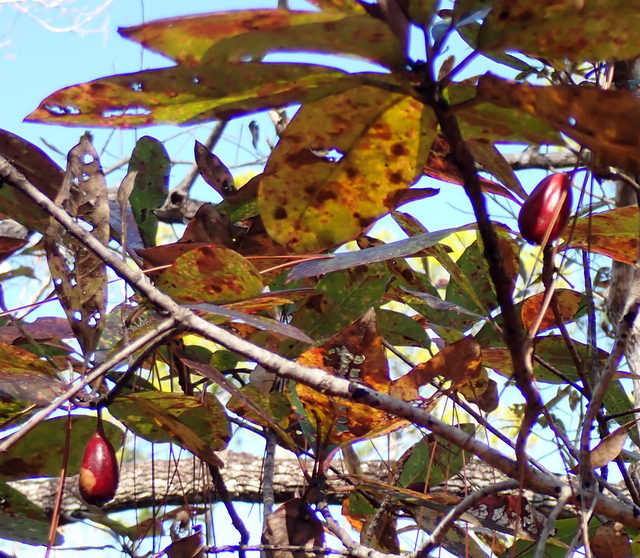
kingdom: Plantae
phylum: Tracheophyta
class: Magnoliopsida
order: Cornales
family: Nyssaceae
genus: Nyssa
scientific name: Nyssa ogeche
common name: Ogeechee tupelo
